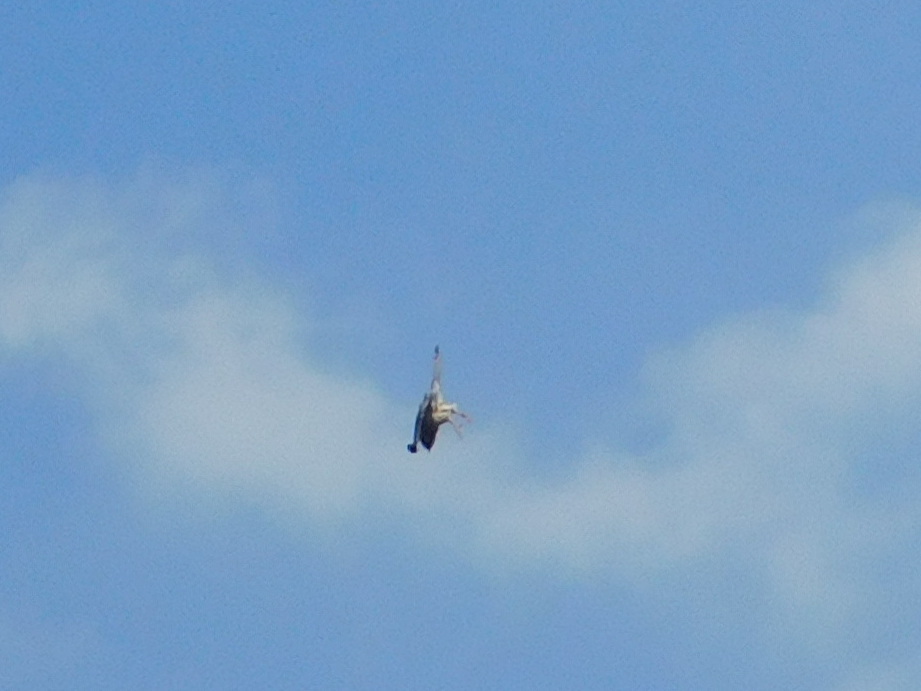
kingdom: Animalia
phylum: Chordata
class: Aves
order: Falconiformes
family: Falconidae
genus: Falco
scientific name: Falco tinnunculus
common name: Common kestrel
